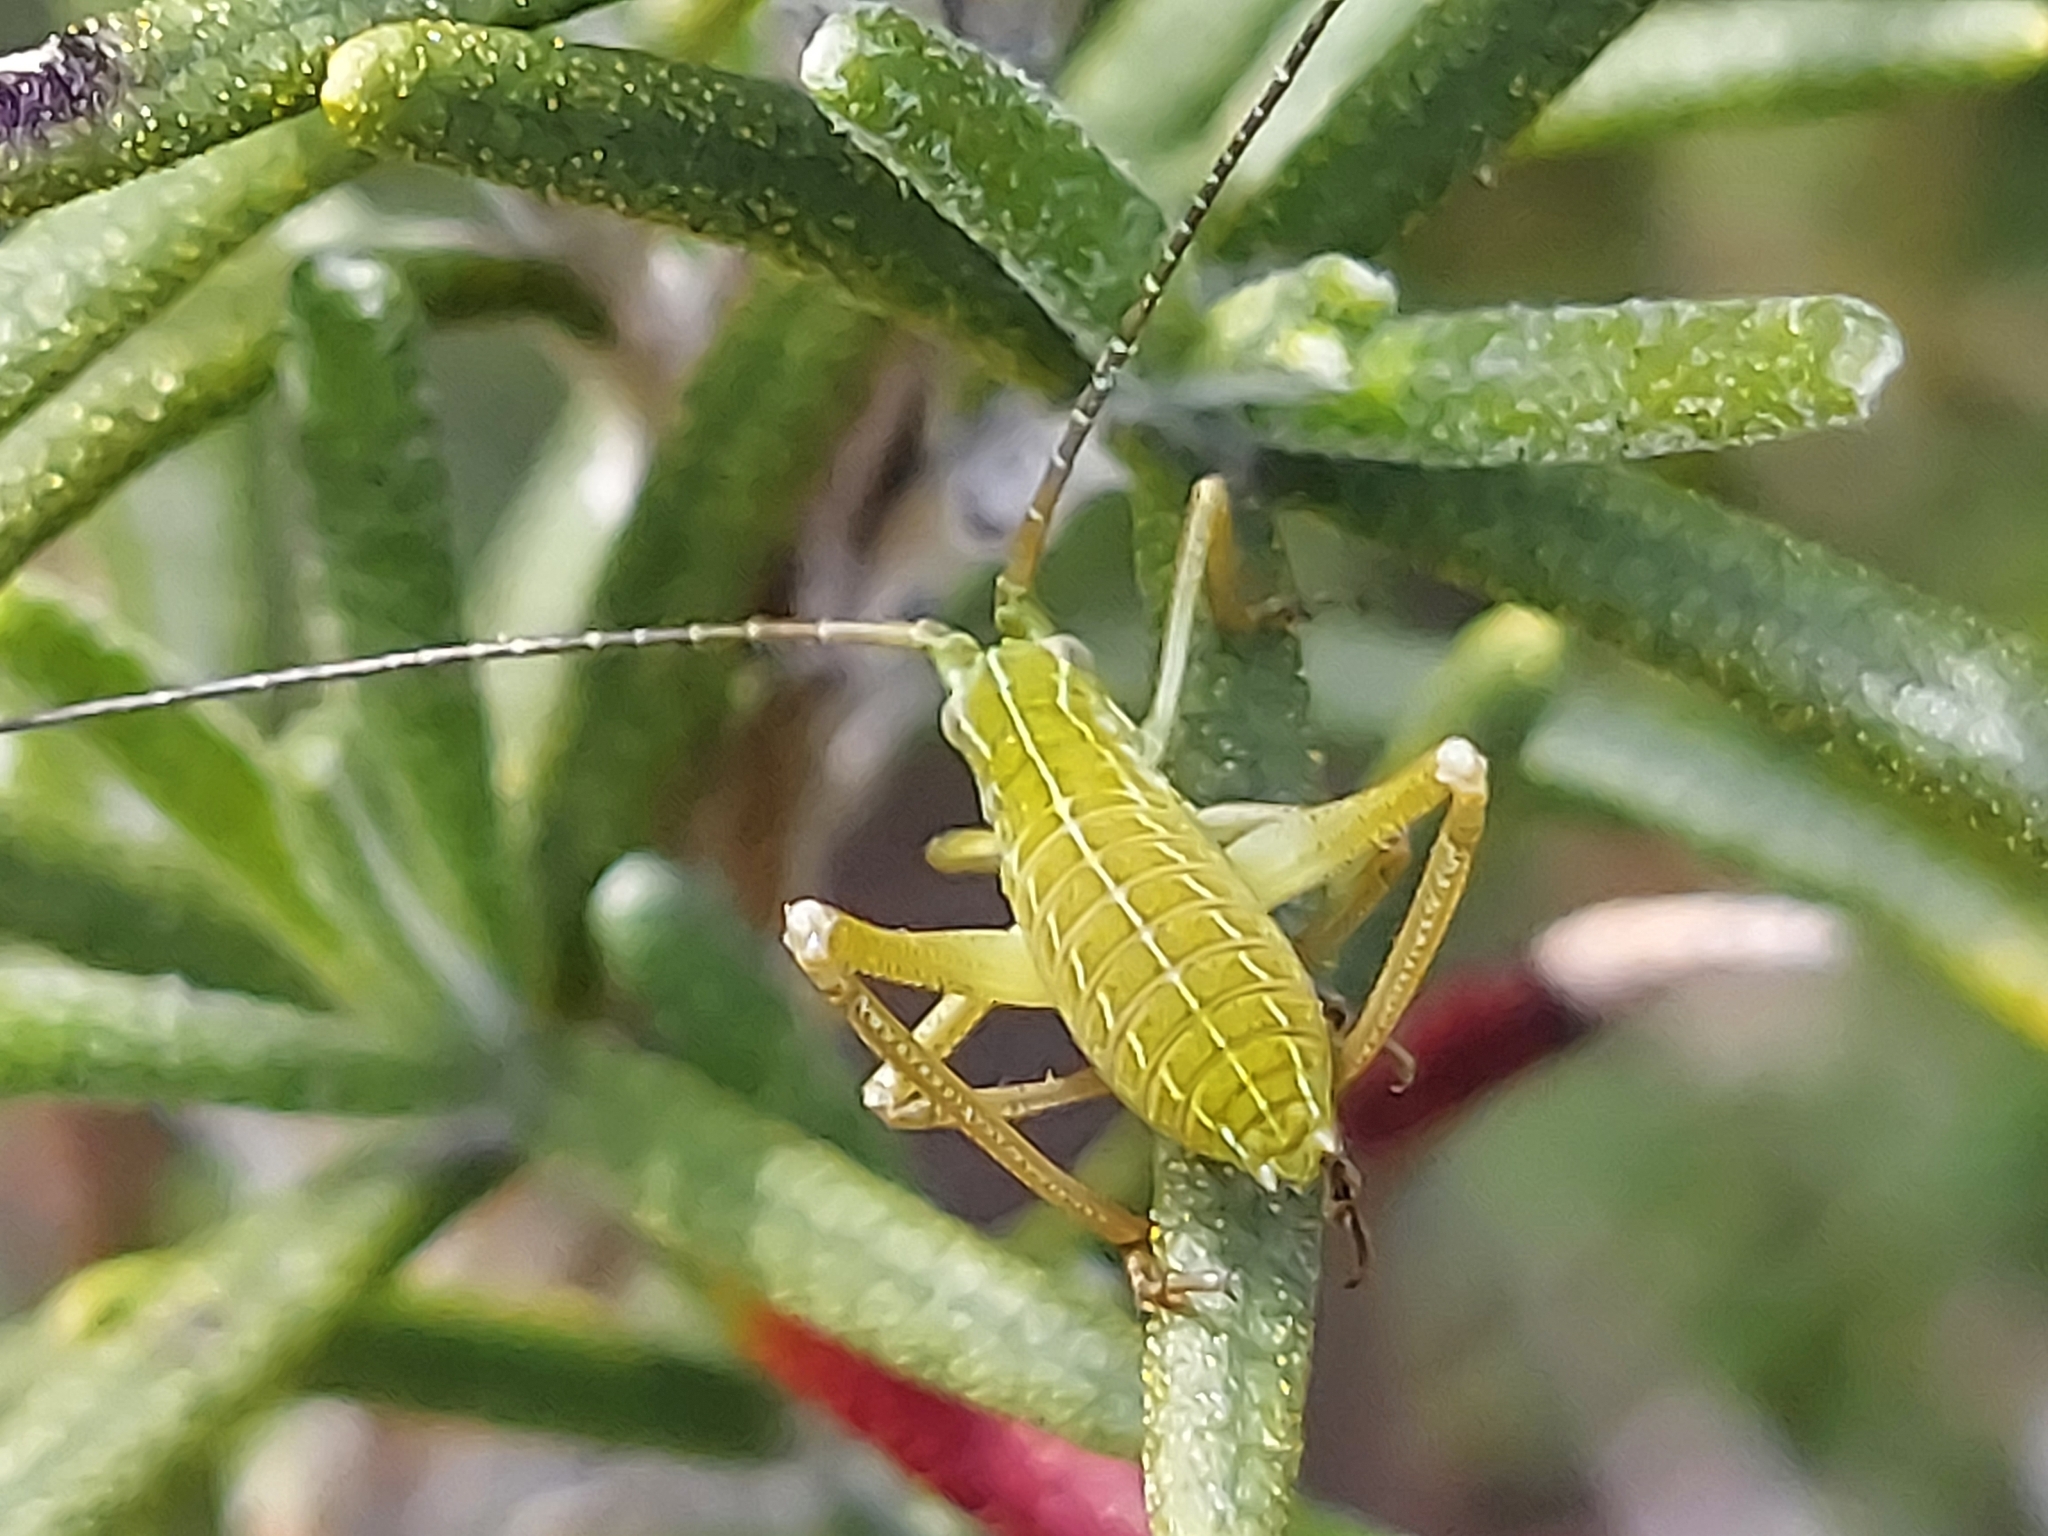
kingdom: Animalia
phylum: Arthropoda
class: Insecta
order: Orthoptera
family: Tettigoniidae
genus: Shirakisotima
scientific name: Shirakisotima japonica
